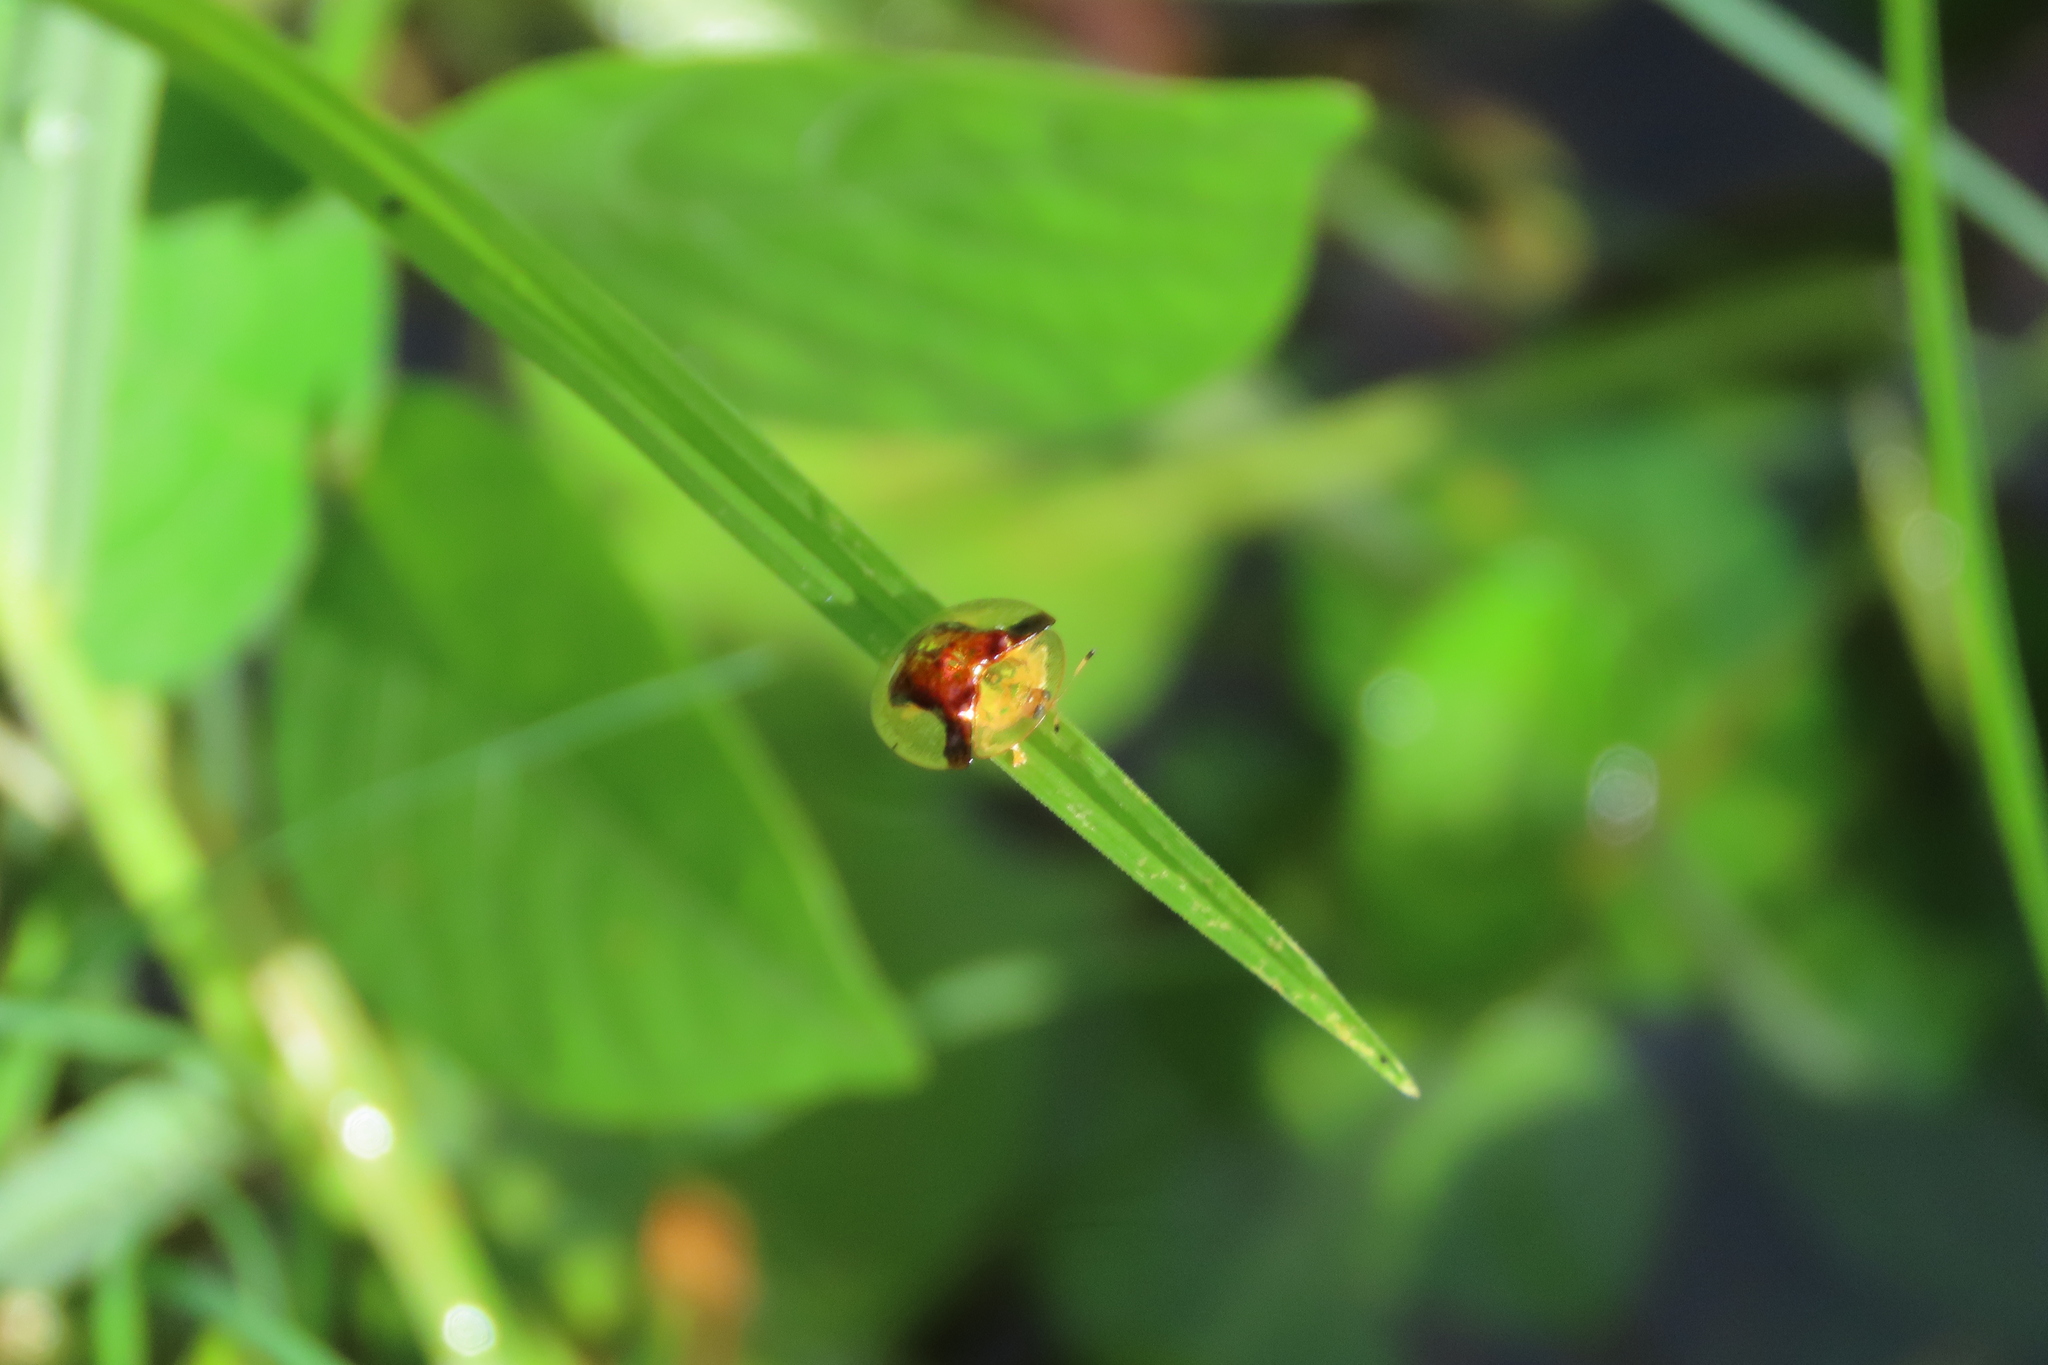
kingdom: Animalia
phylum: Arthropoda
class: Insecta
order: Coleoptera
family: Chrysomelidae
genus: Aspidimorpha
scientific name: Aspidimorpha furcata
